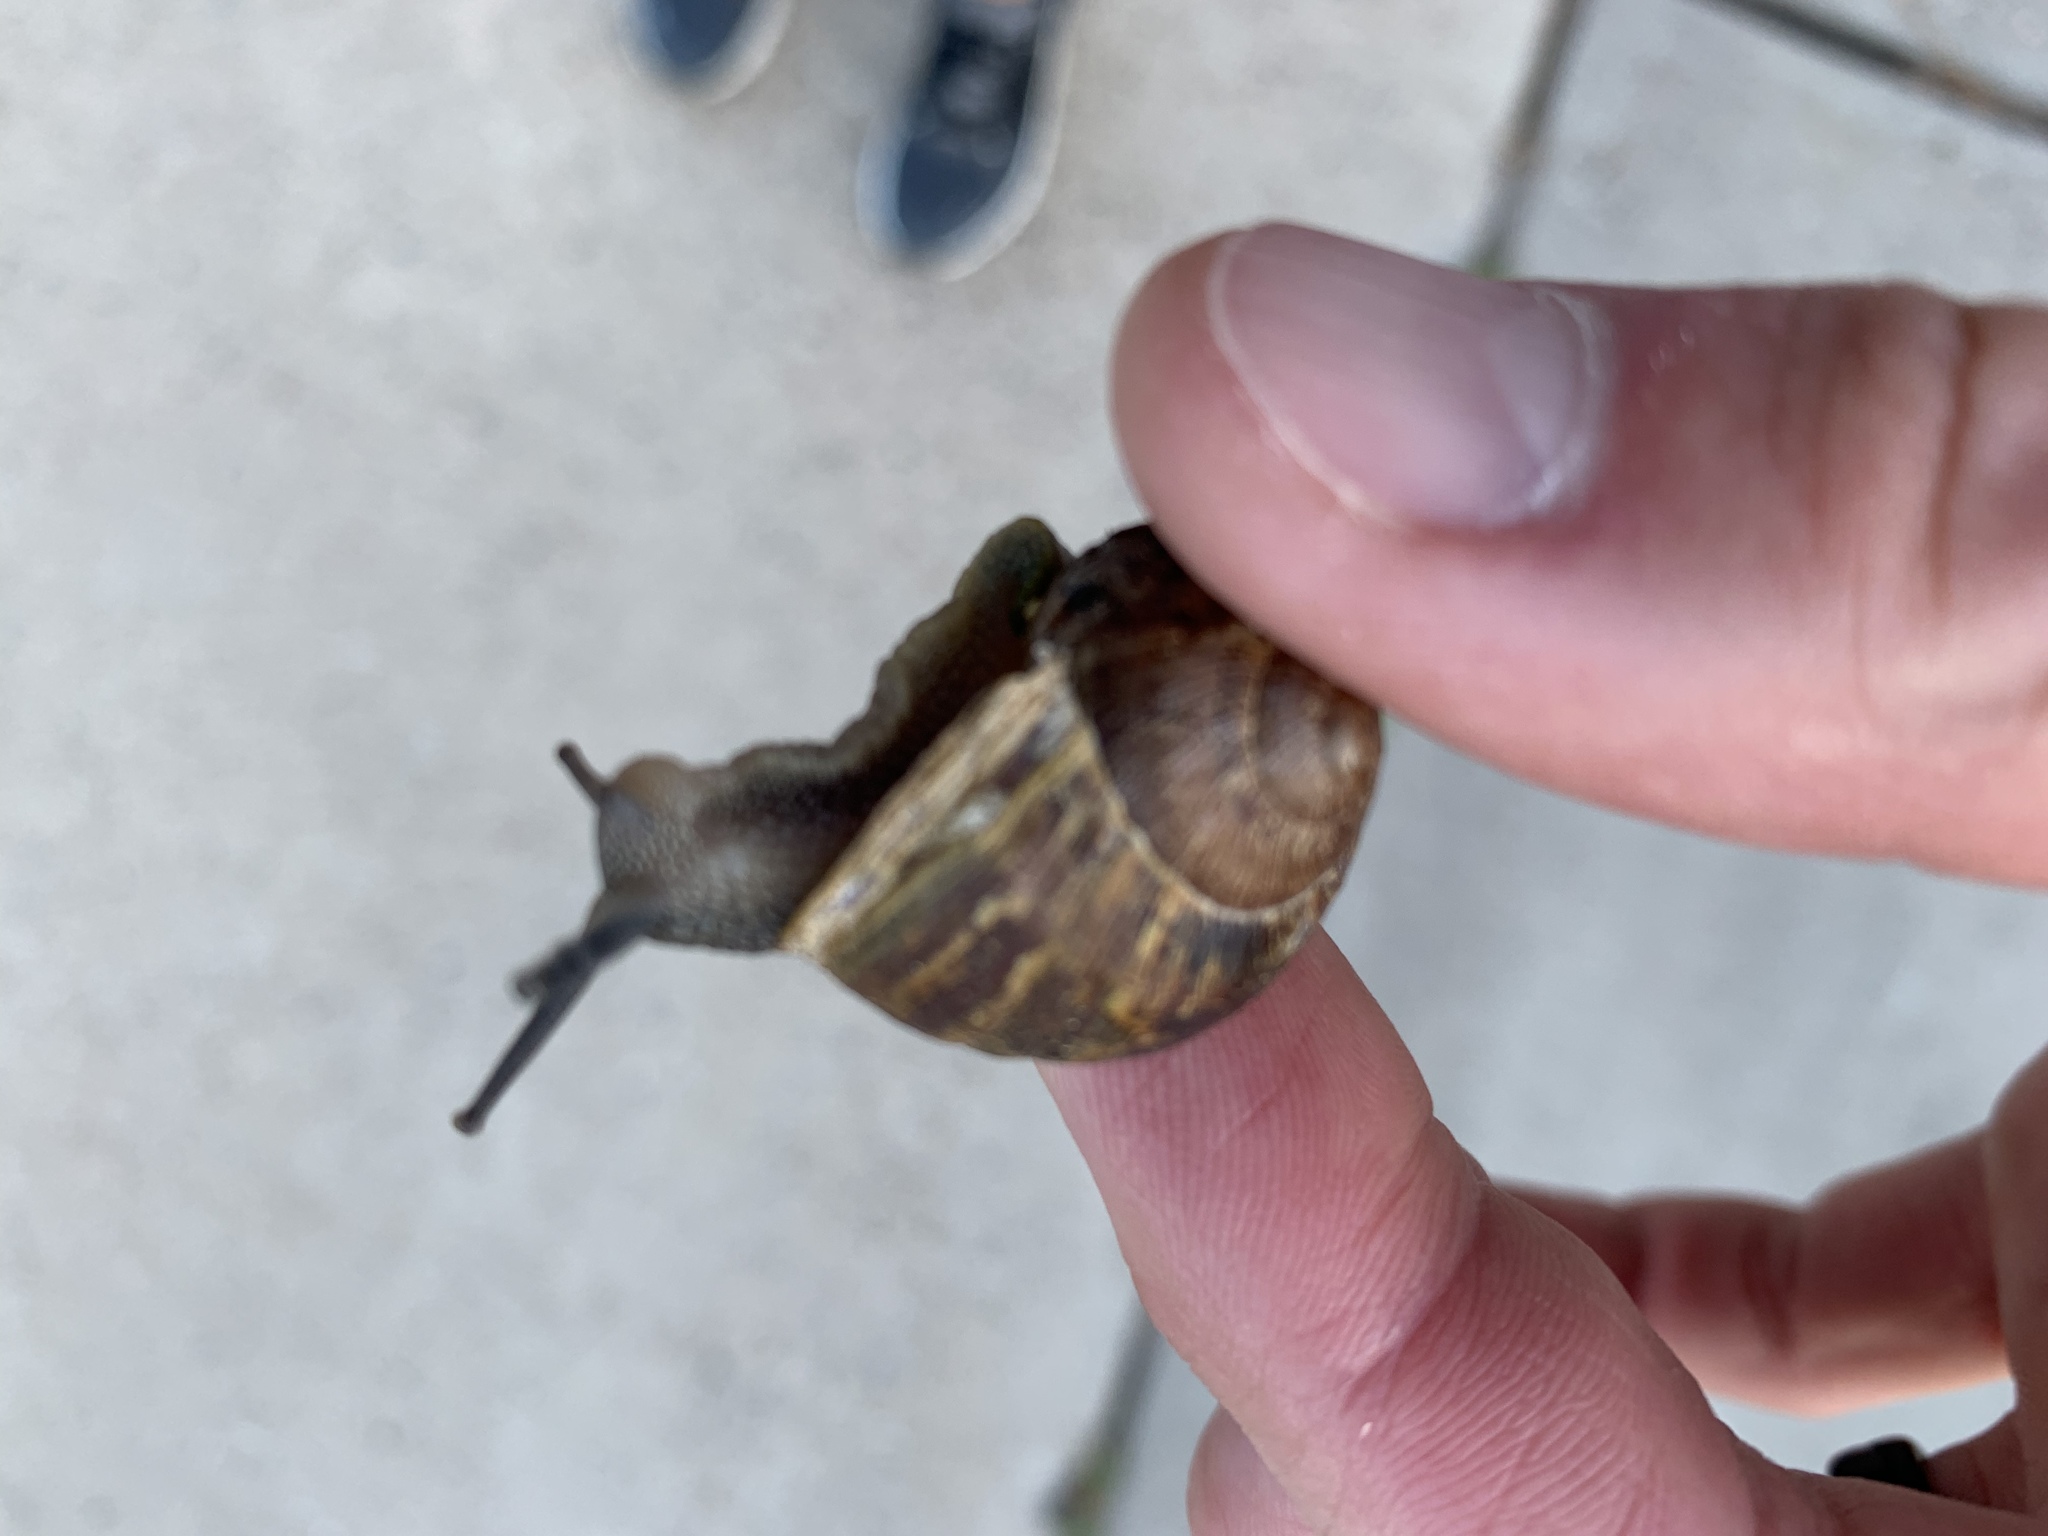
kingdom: Animalia
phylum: Mollusca
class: Gastropoda
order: Stylommatophora
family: Helicidae
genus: Cornu
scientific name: Cornu aspersum
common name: Brown garden snail
